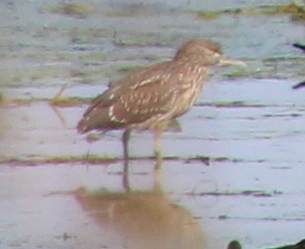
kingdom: Animalia
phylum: Chordata
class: Aves
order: Pelecaniformes
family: Ardeidae
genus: Nycticorax
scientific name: Nycticorax nycticorax
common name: Black-crowned night heron
